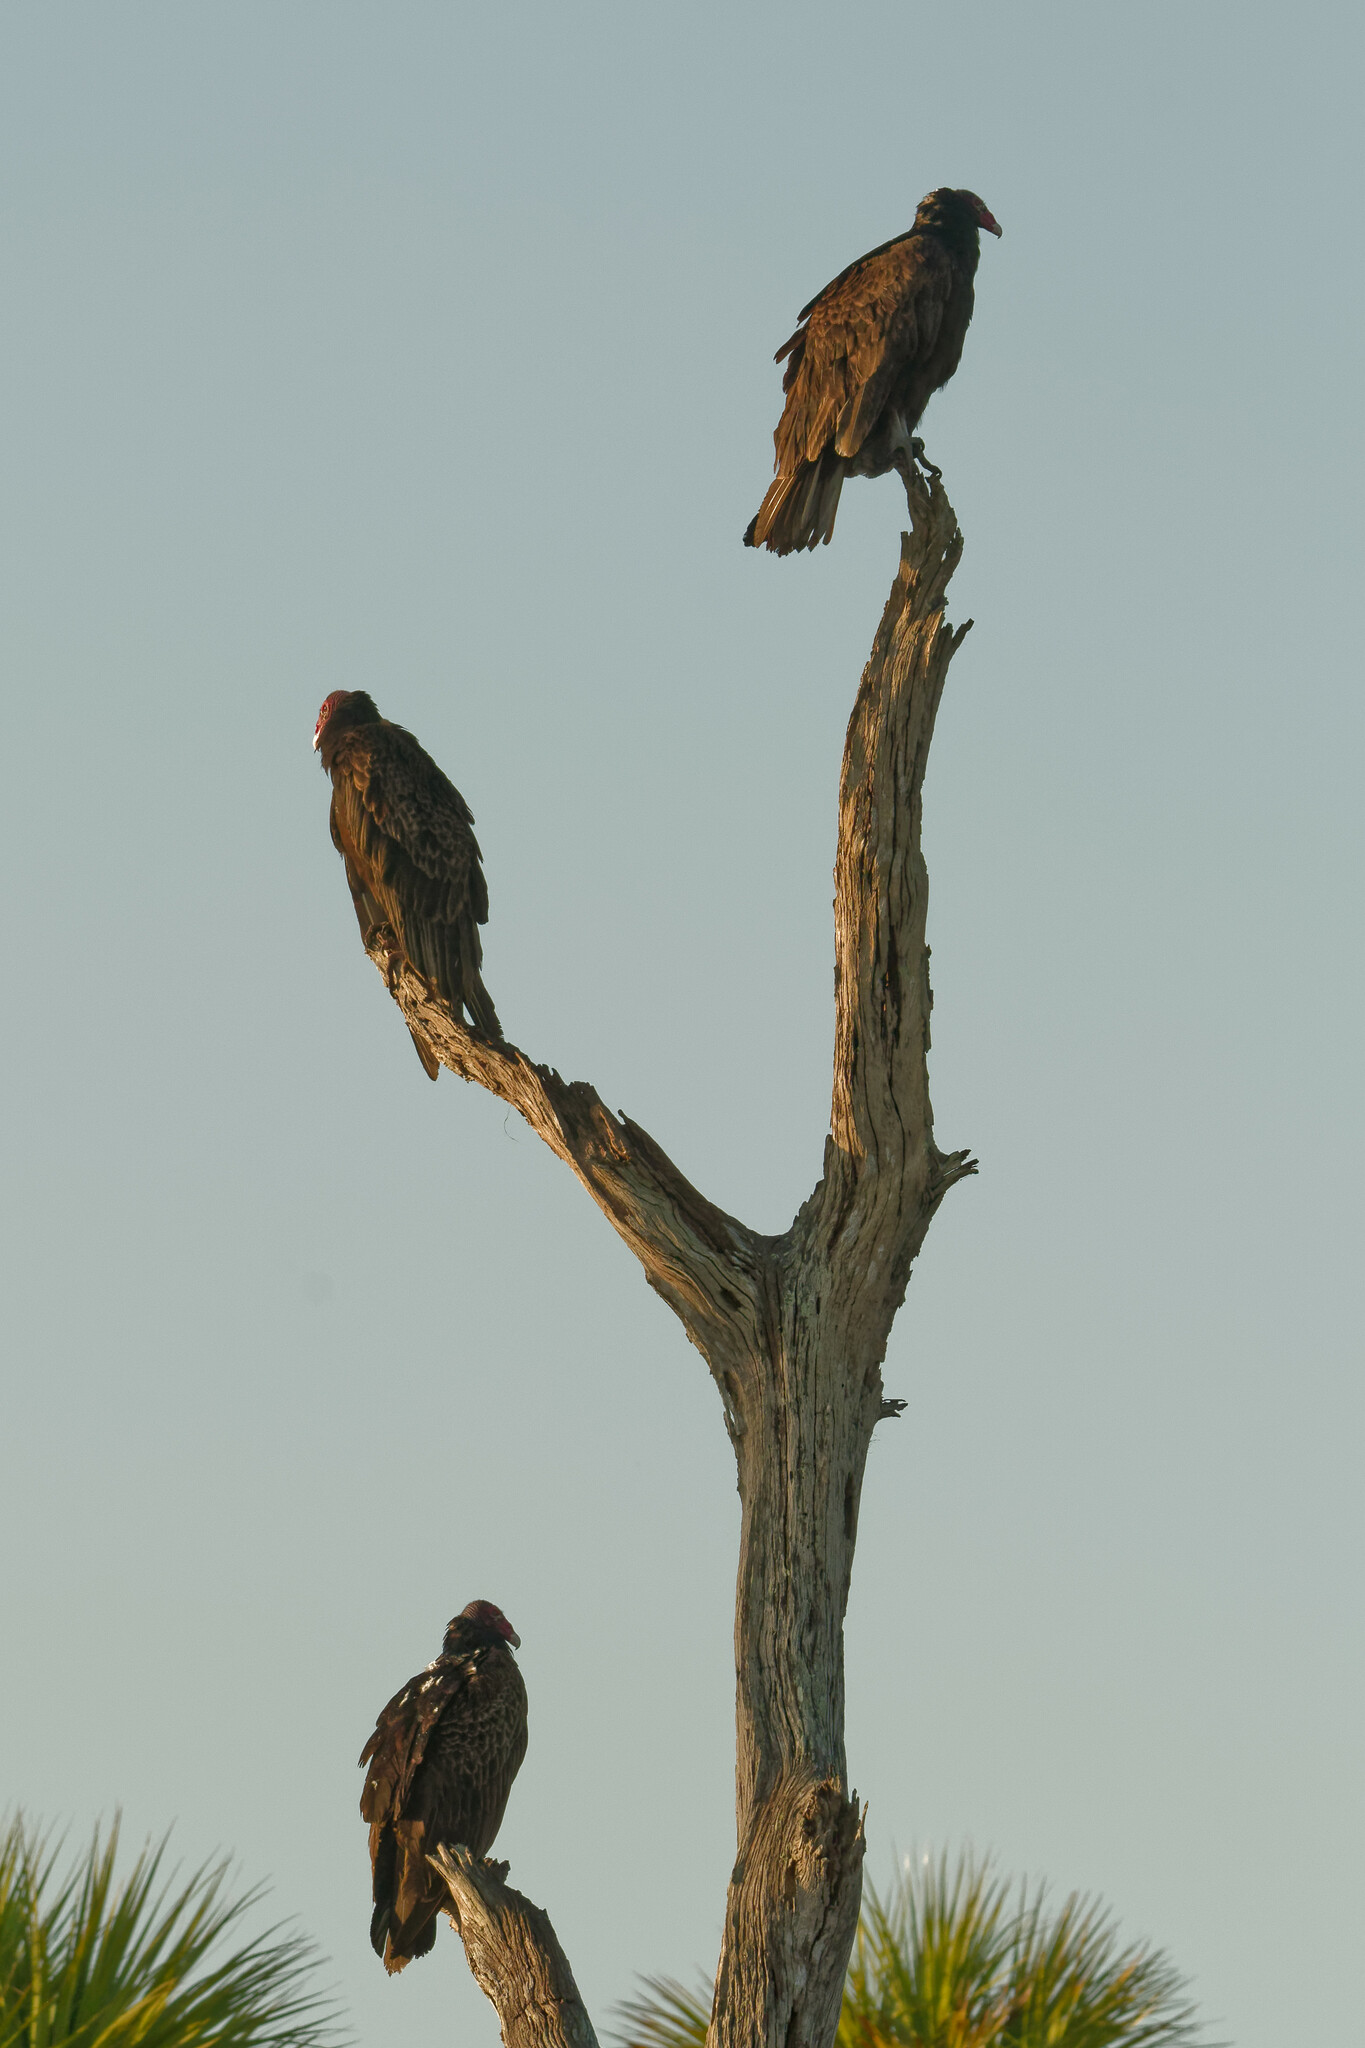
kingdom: Animalia
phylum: Chordata
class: Aves
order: Accipitriformes
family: Cathartidae
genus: Cathartes
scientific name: Cathartes aura
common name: Turkey vulture
